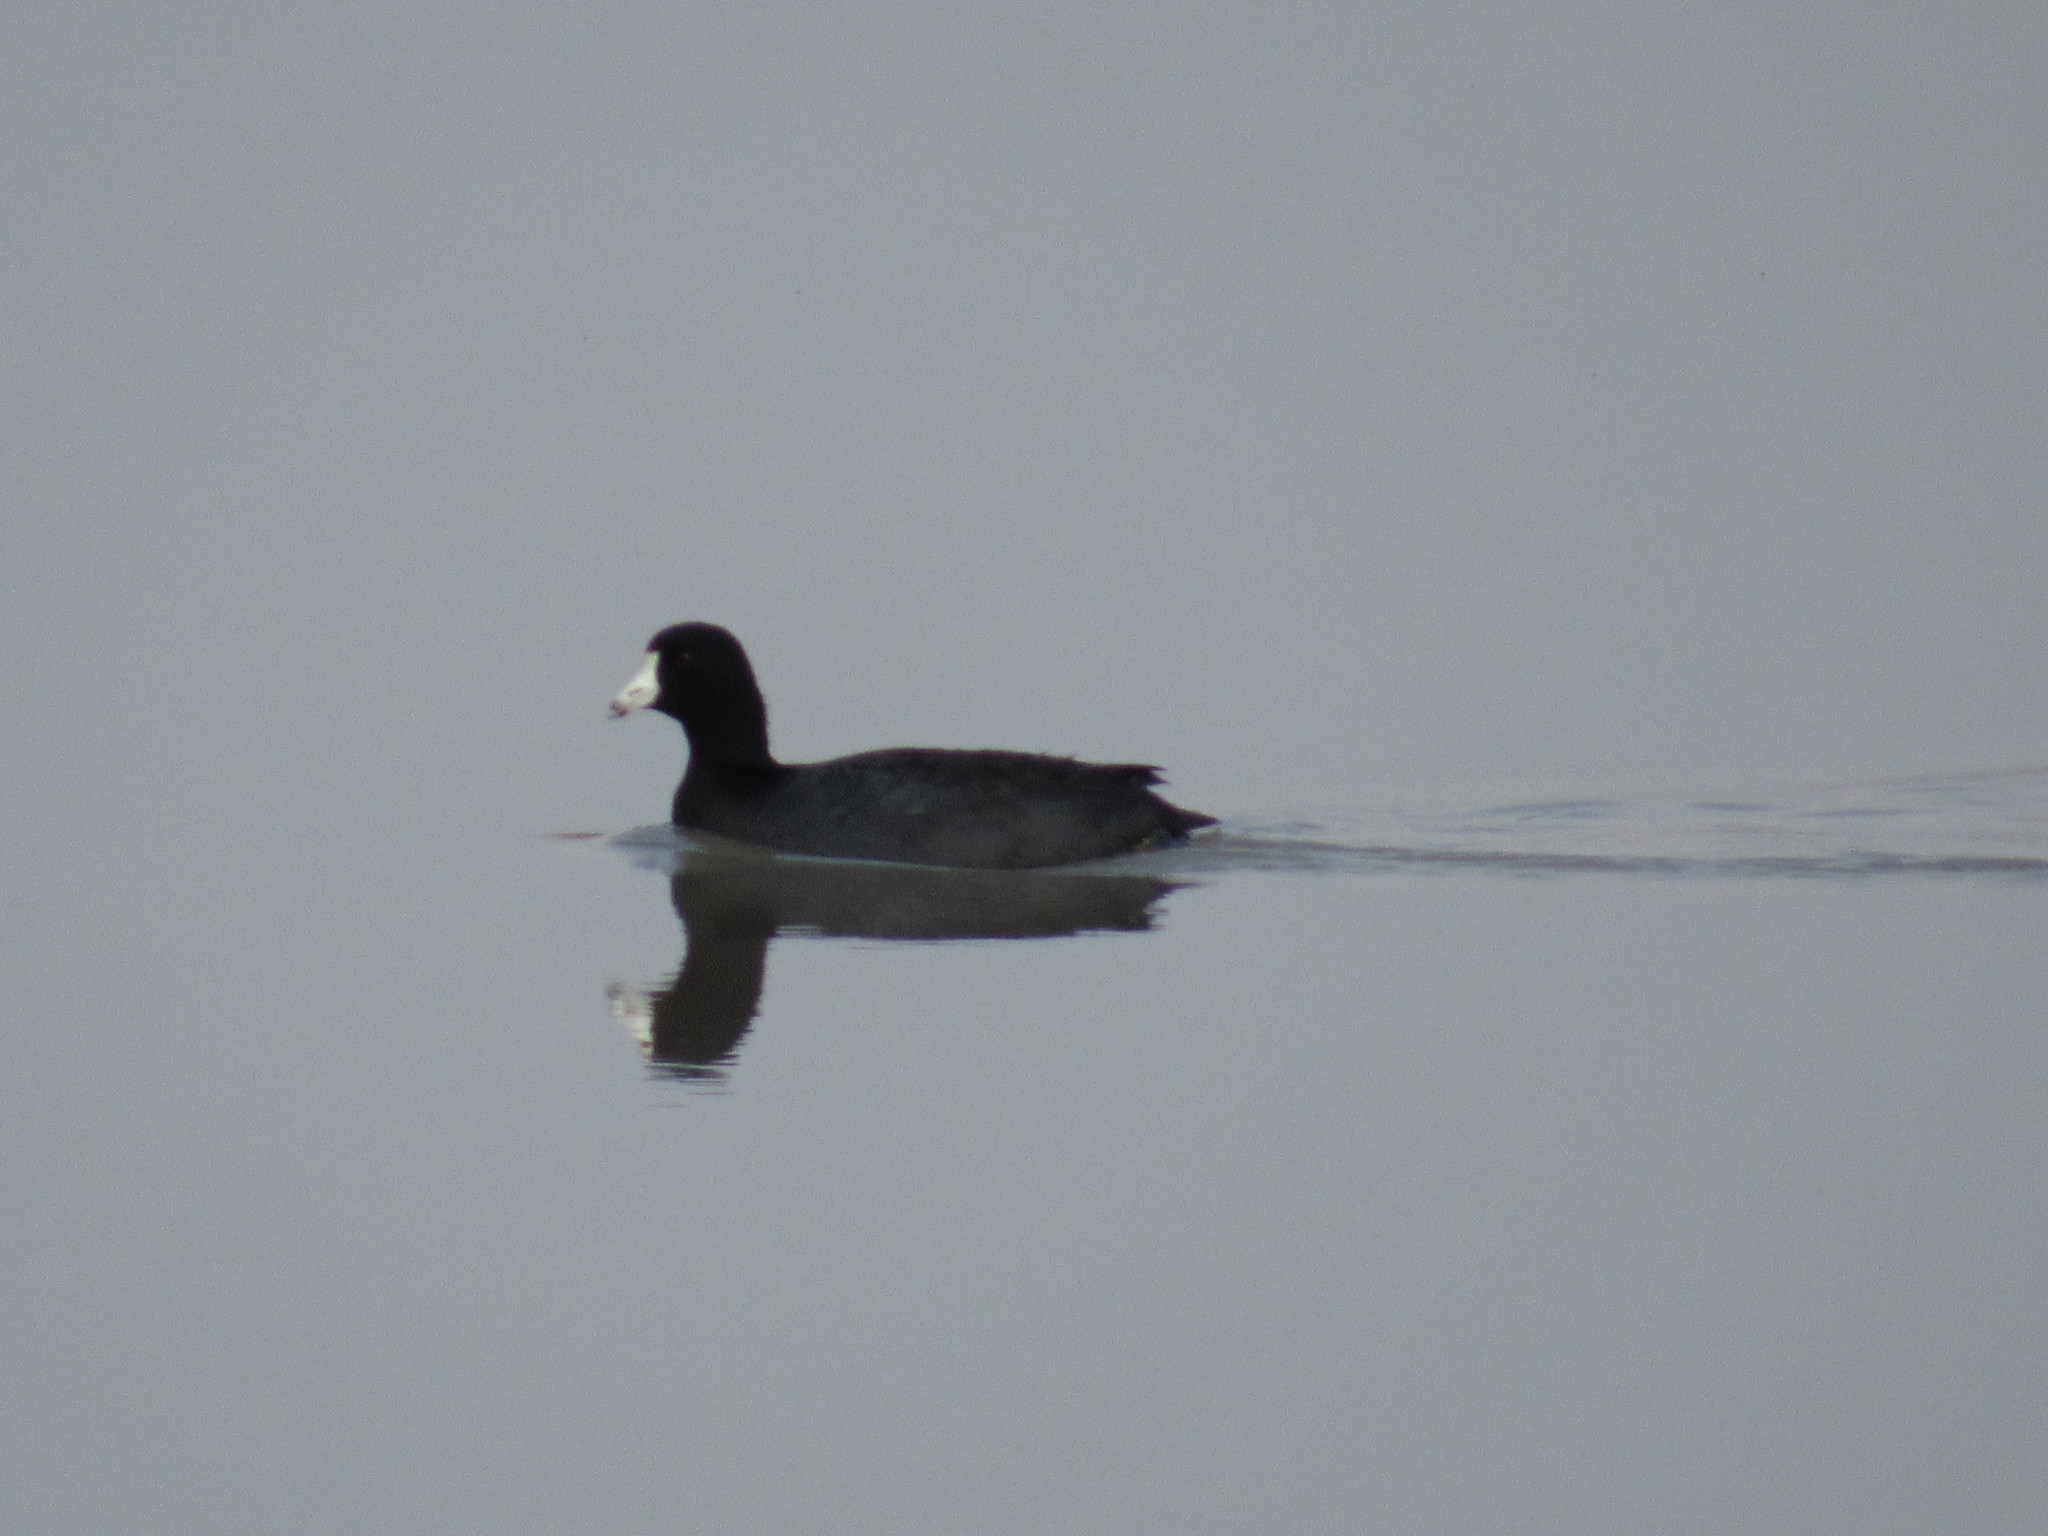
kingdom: Animalia
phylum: Chordata
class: Aves
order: Gruiformes
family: Rallidae
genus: Fulica
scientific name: Fulica americana
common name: American coot
